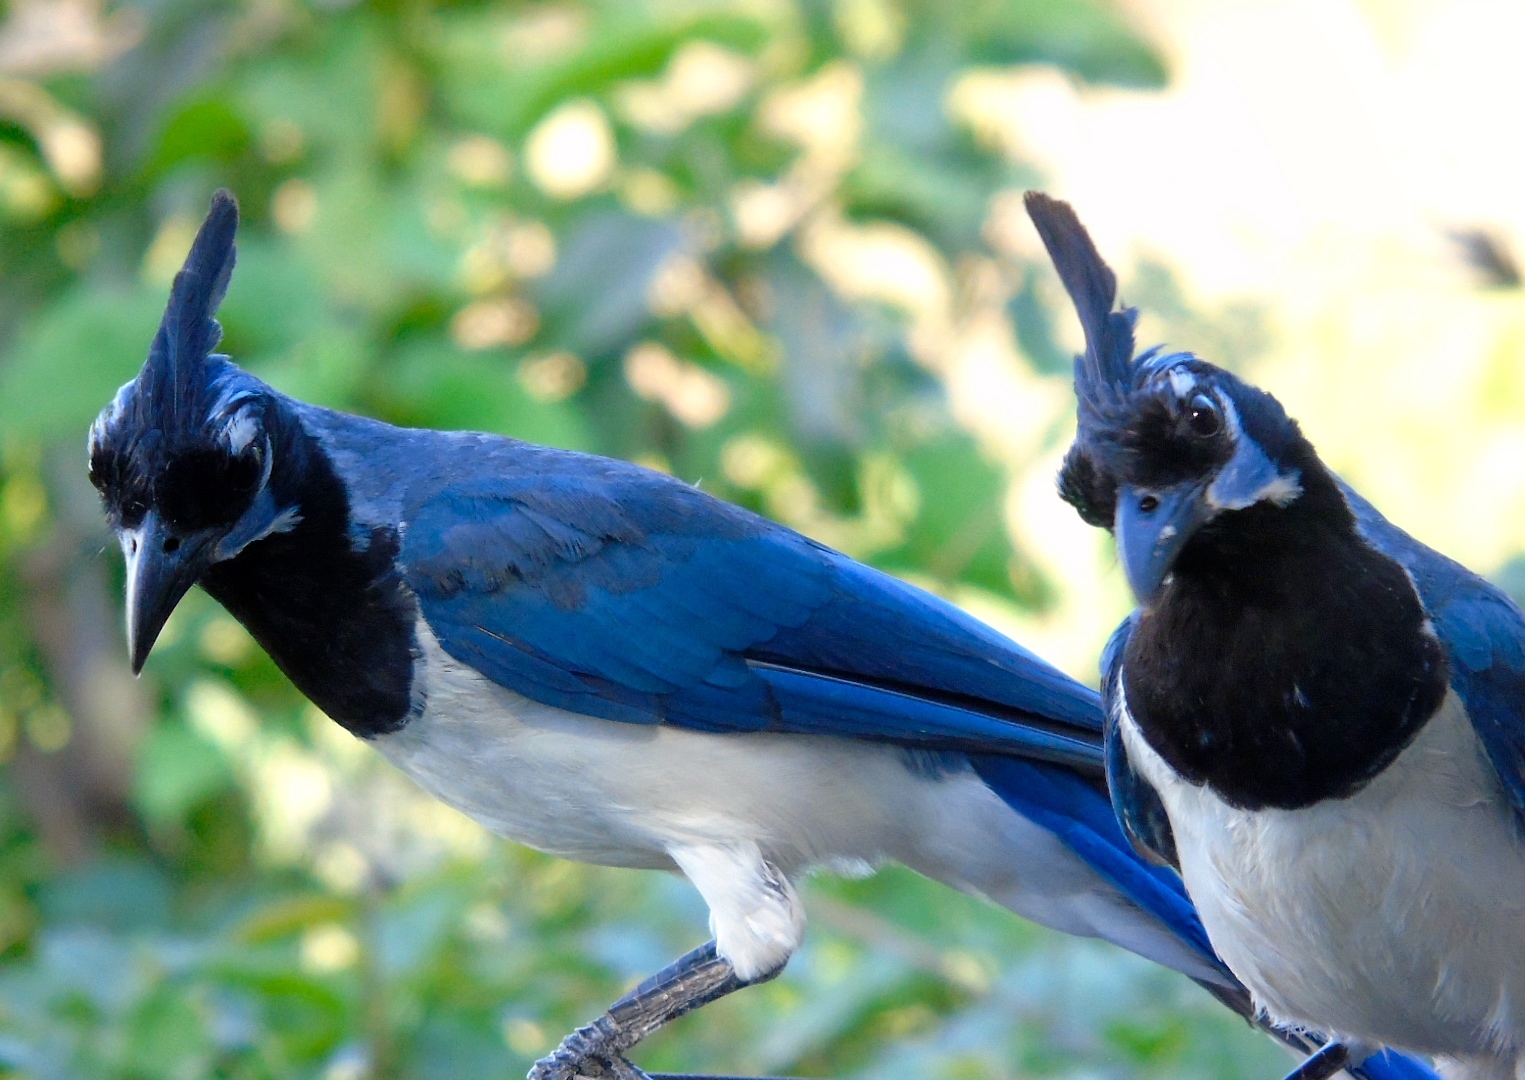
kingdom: Animalia
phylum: Chordata
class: Aves
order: Passeriformes
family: Corvidae
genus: Calocitta
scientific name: Calocitta colliei
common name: Black-throated magpie-jay
